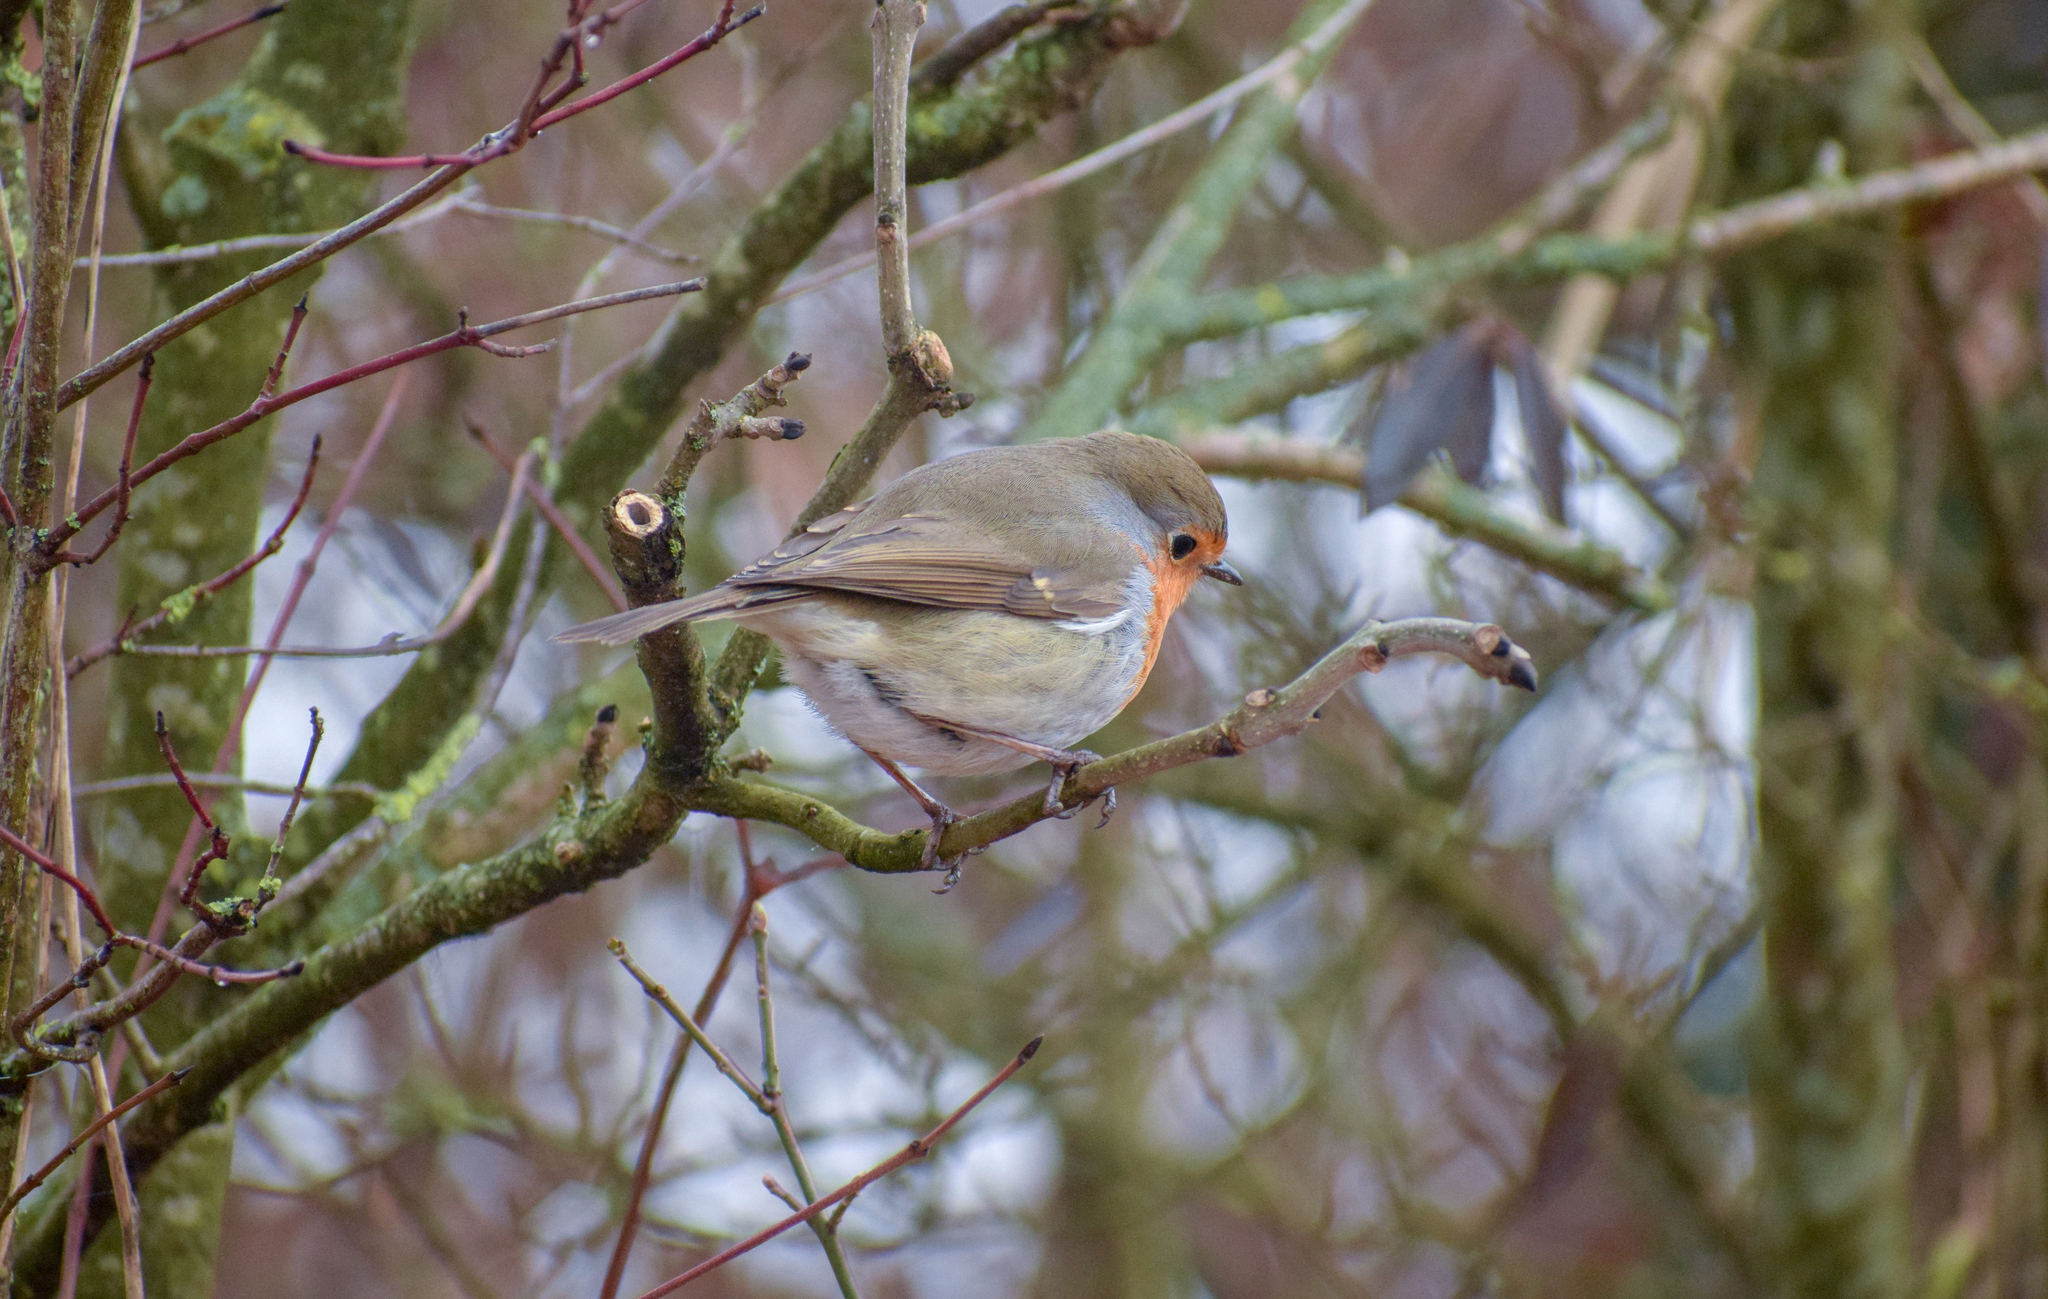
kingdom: Animalia
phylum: Chordata
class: Aves
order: Passeriformes
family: Muscicapidae
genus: Erithacus
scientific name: Erithacus rubecula
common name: European robin
